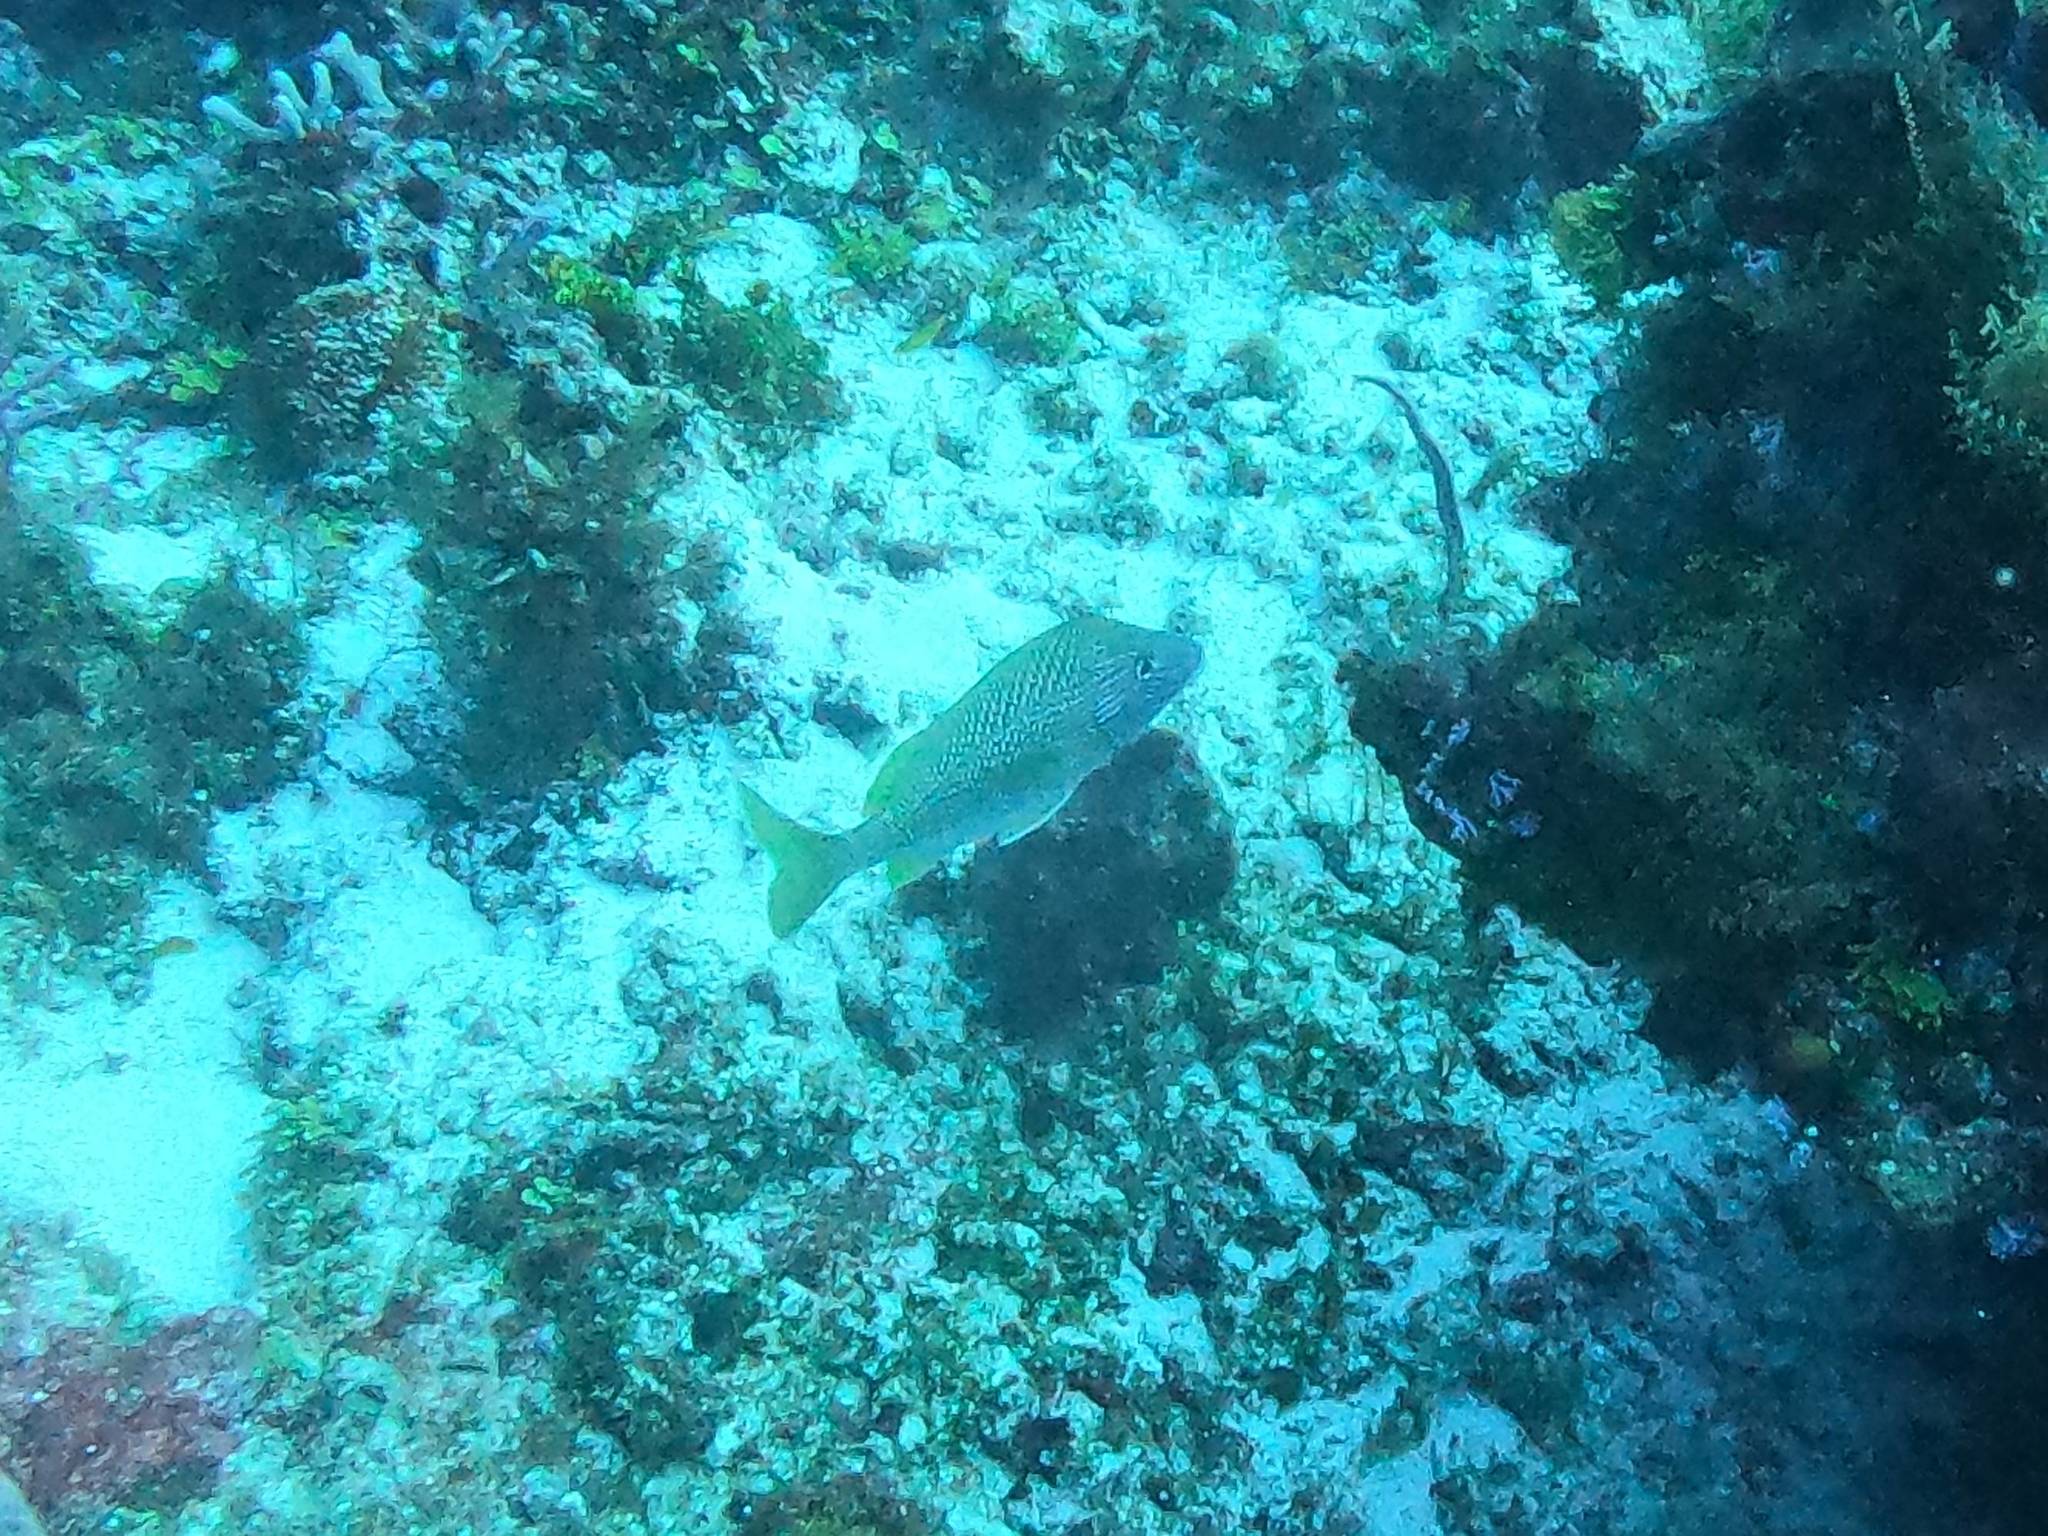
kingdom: Animalia
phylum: Chordata
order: Perciformes
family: Haemulidae
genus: Haemulon
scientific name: Haemulon plumierii
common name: White grunt
